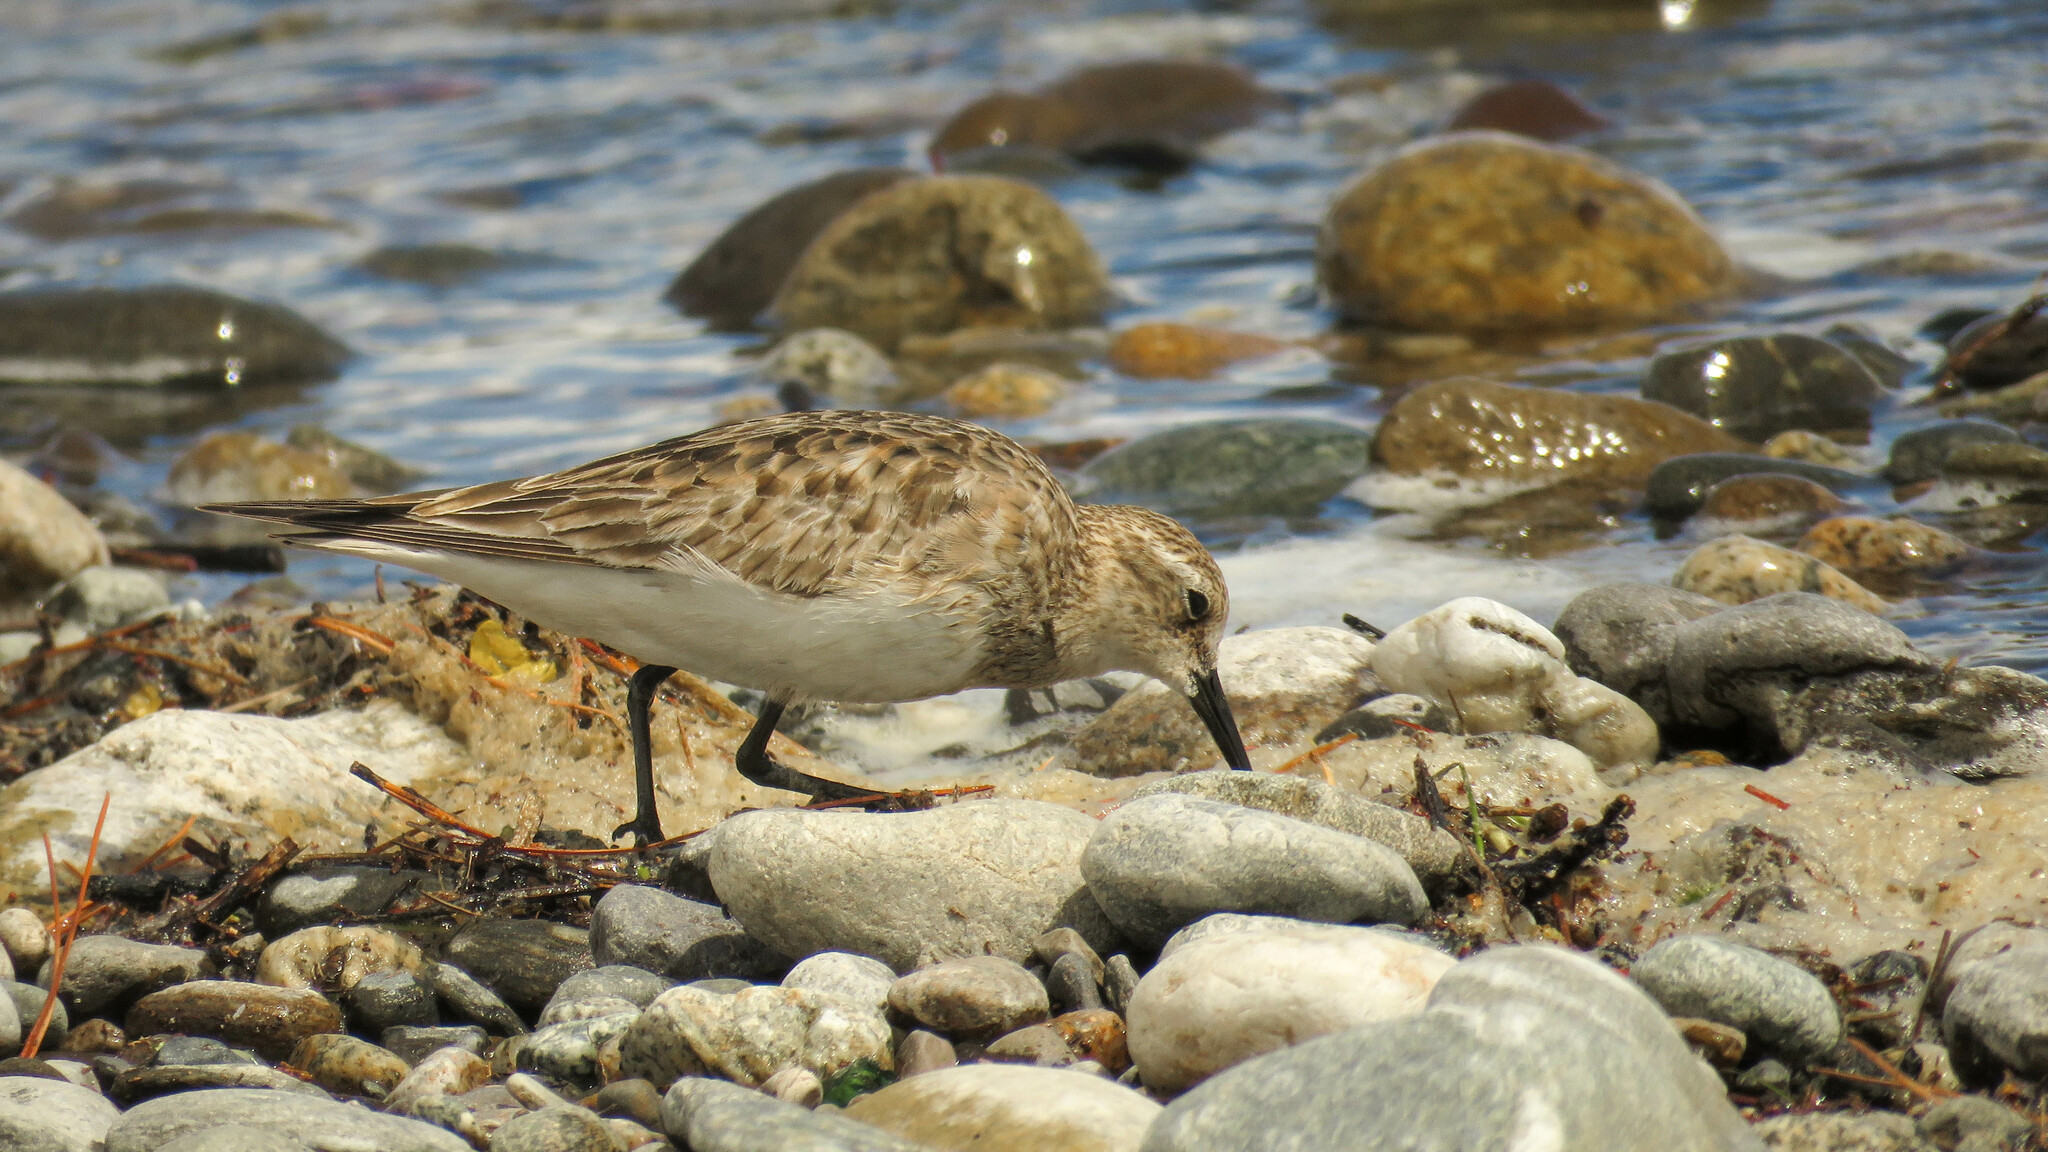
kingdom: Animalia
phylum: Chordata
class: Aves
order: Charadriiformes
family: Scolopacidae
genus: Calidris
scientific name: Calidris bairdii
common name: Baird's sandpiper
